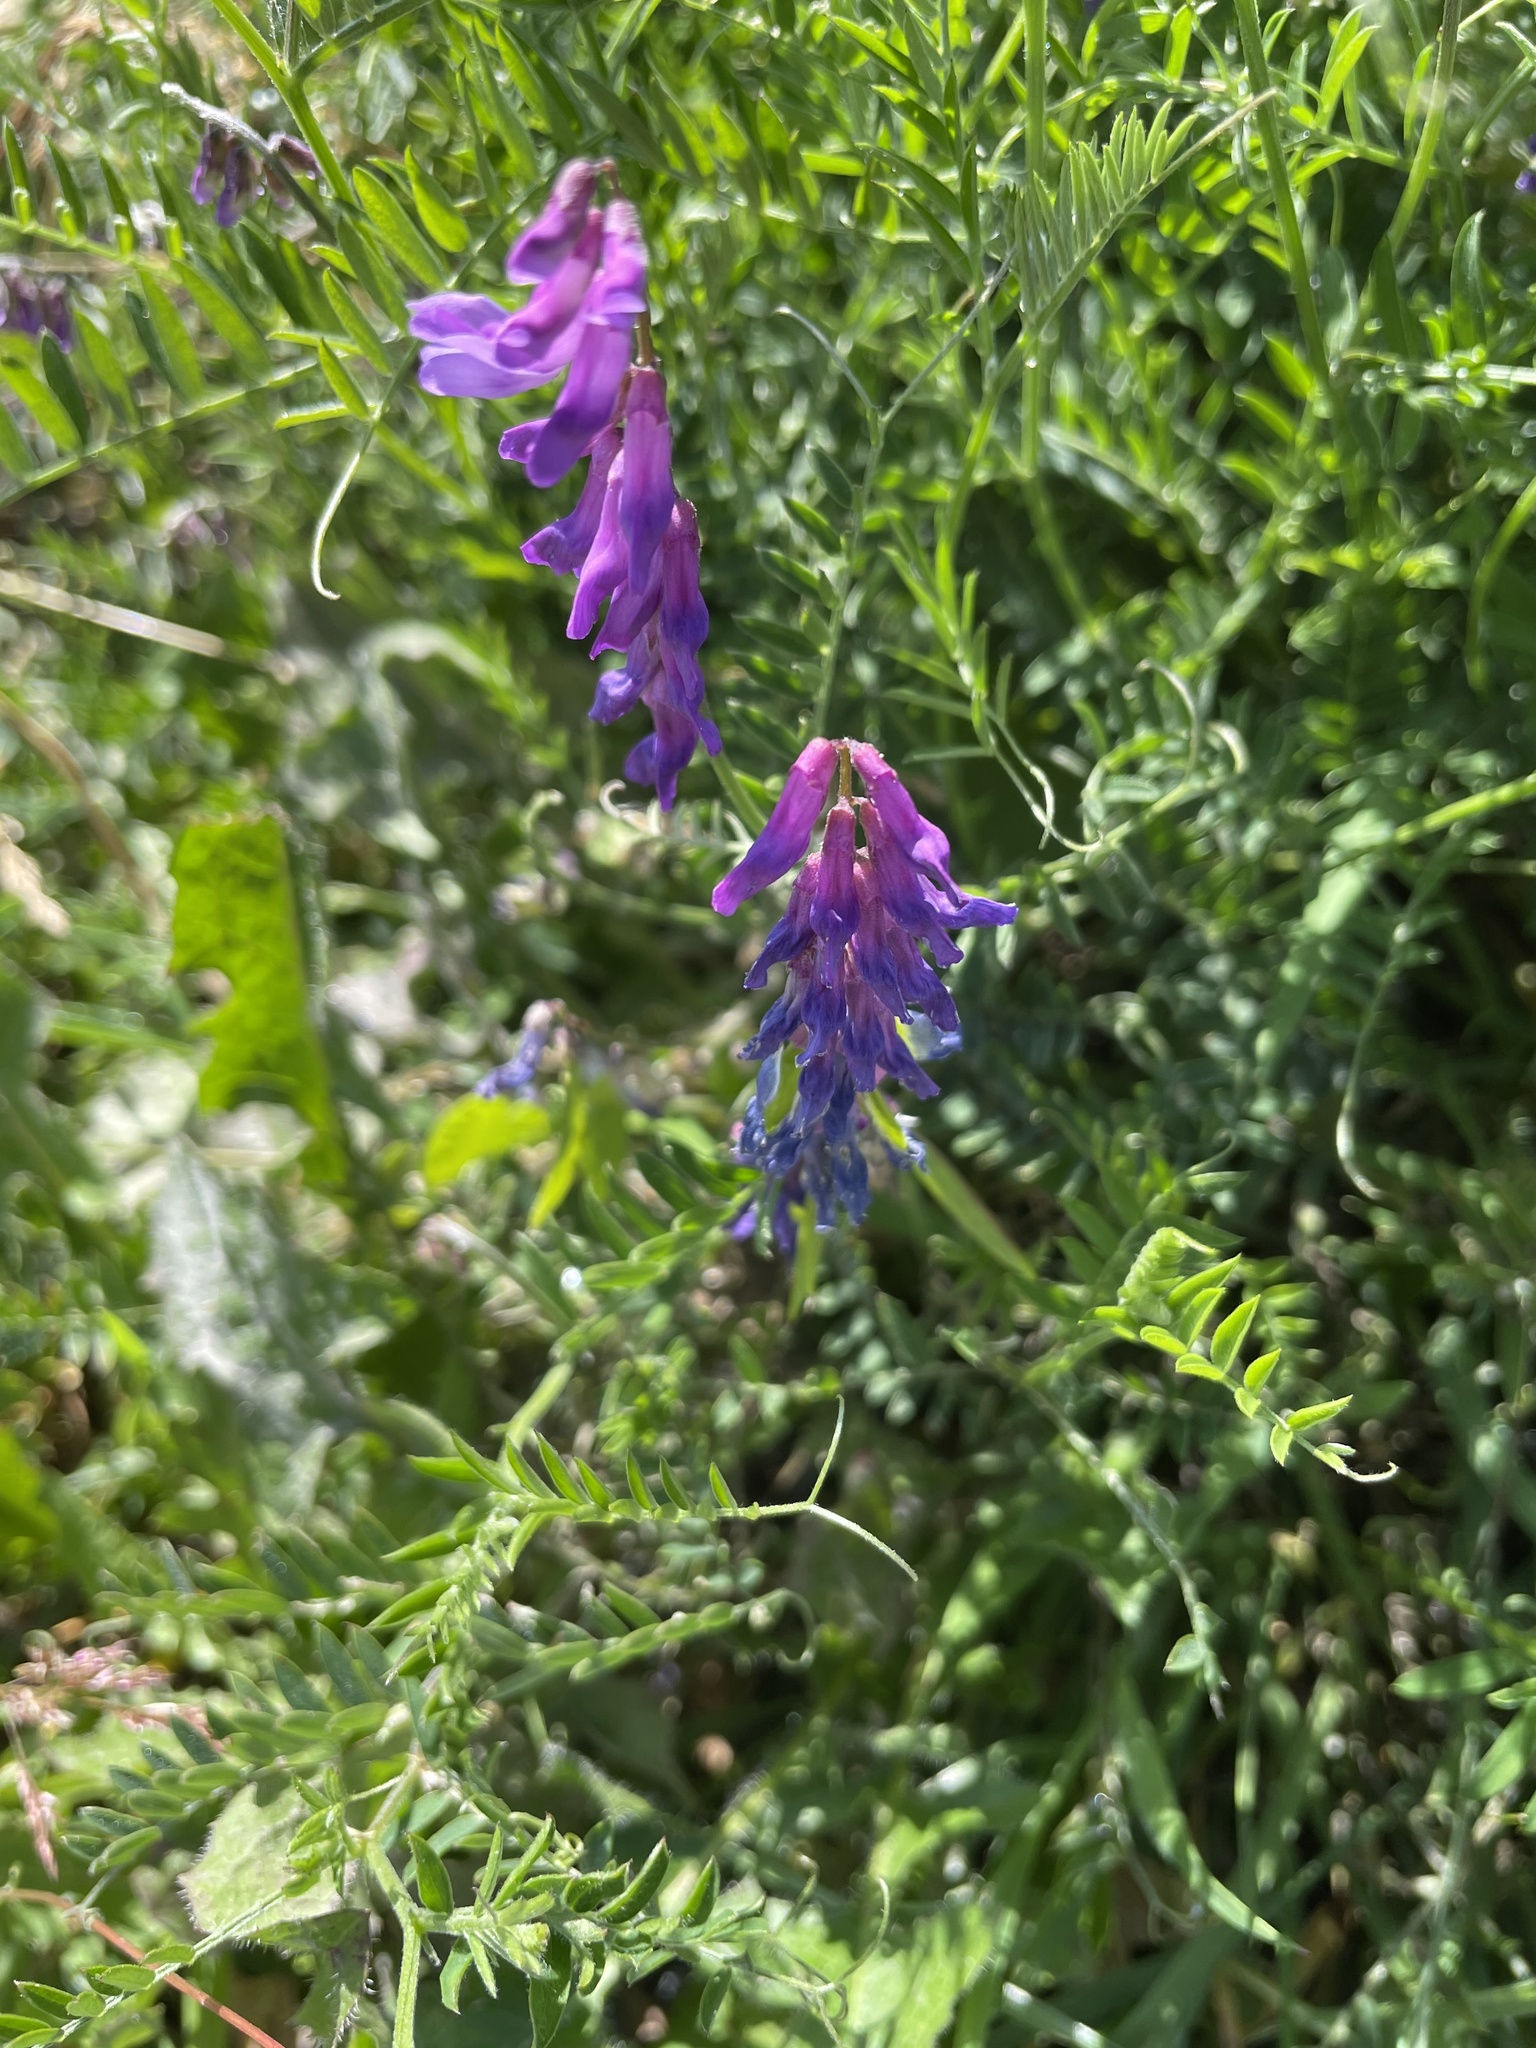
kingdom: Plantae
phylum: Tracheophyta
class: Magnoliopsida
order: Fabales
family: Fabaceae
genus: Vicia
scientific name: Vicia cracca
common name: Bird vetch
